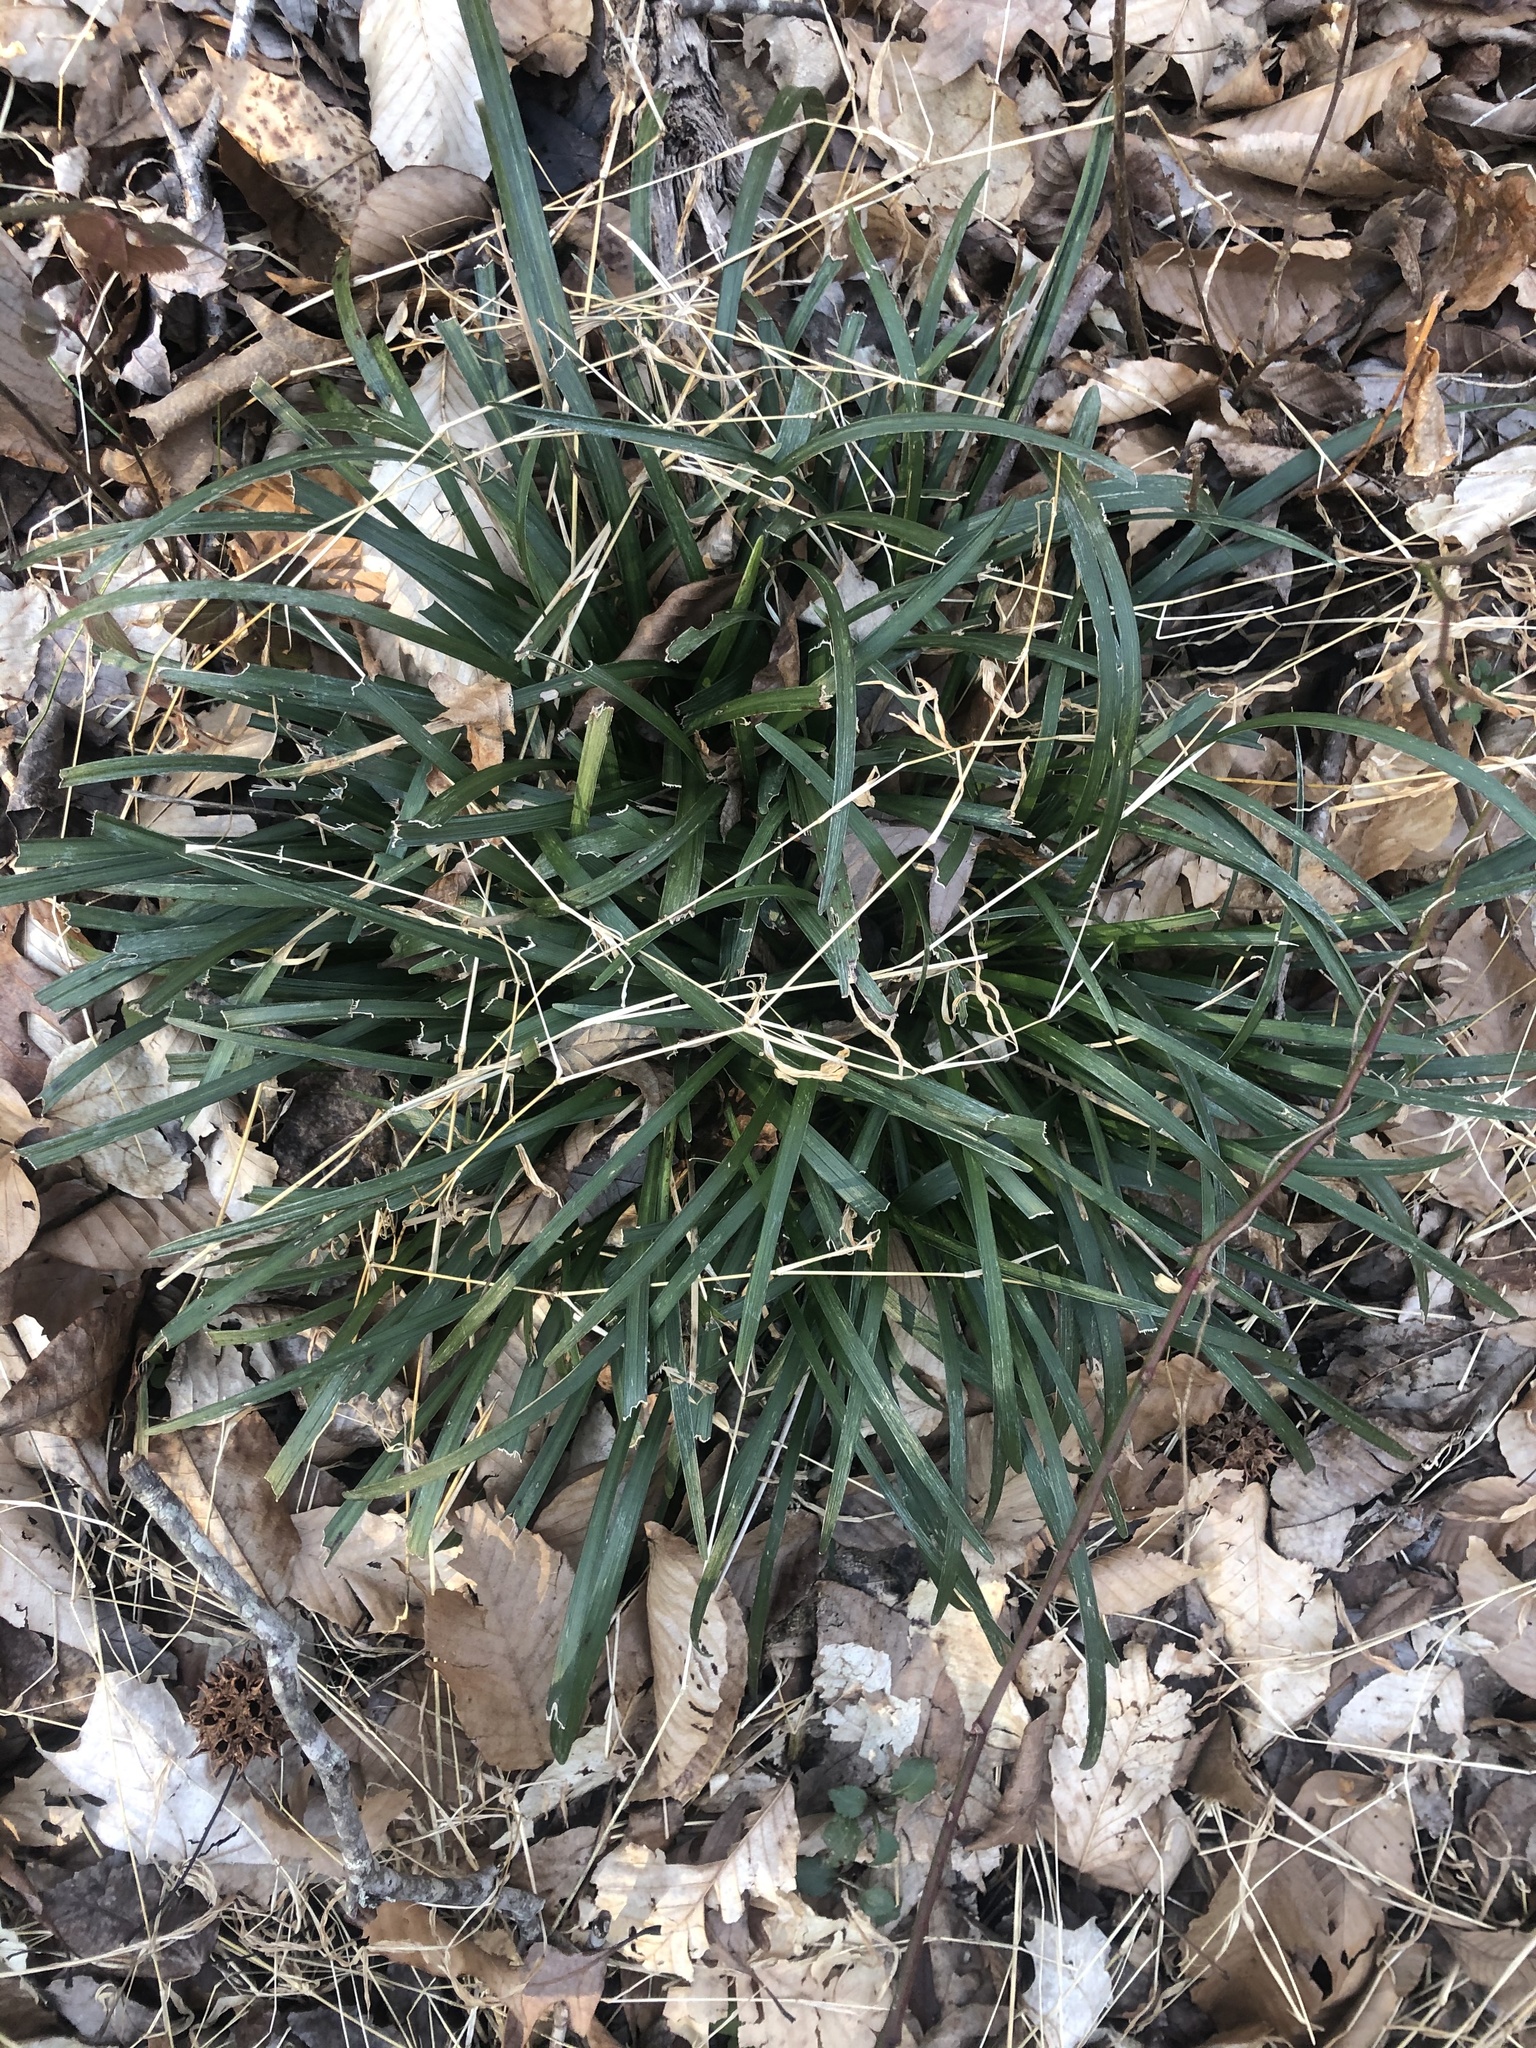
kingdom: Plantae
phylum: Tracheophyta
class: Liliopsida
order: Asparagales
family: Asparagaceae
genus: Liriope
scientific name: Liriope muscari
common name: Big blue lilyturf
